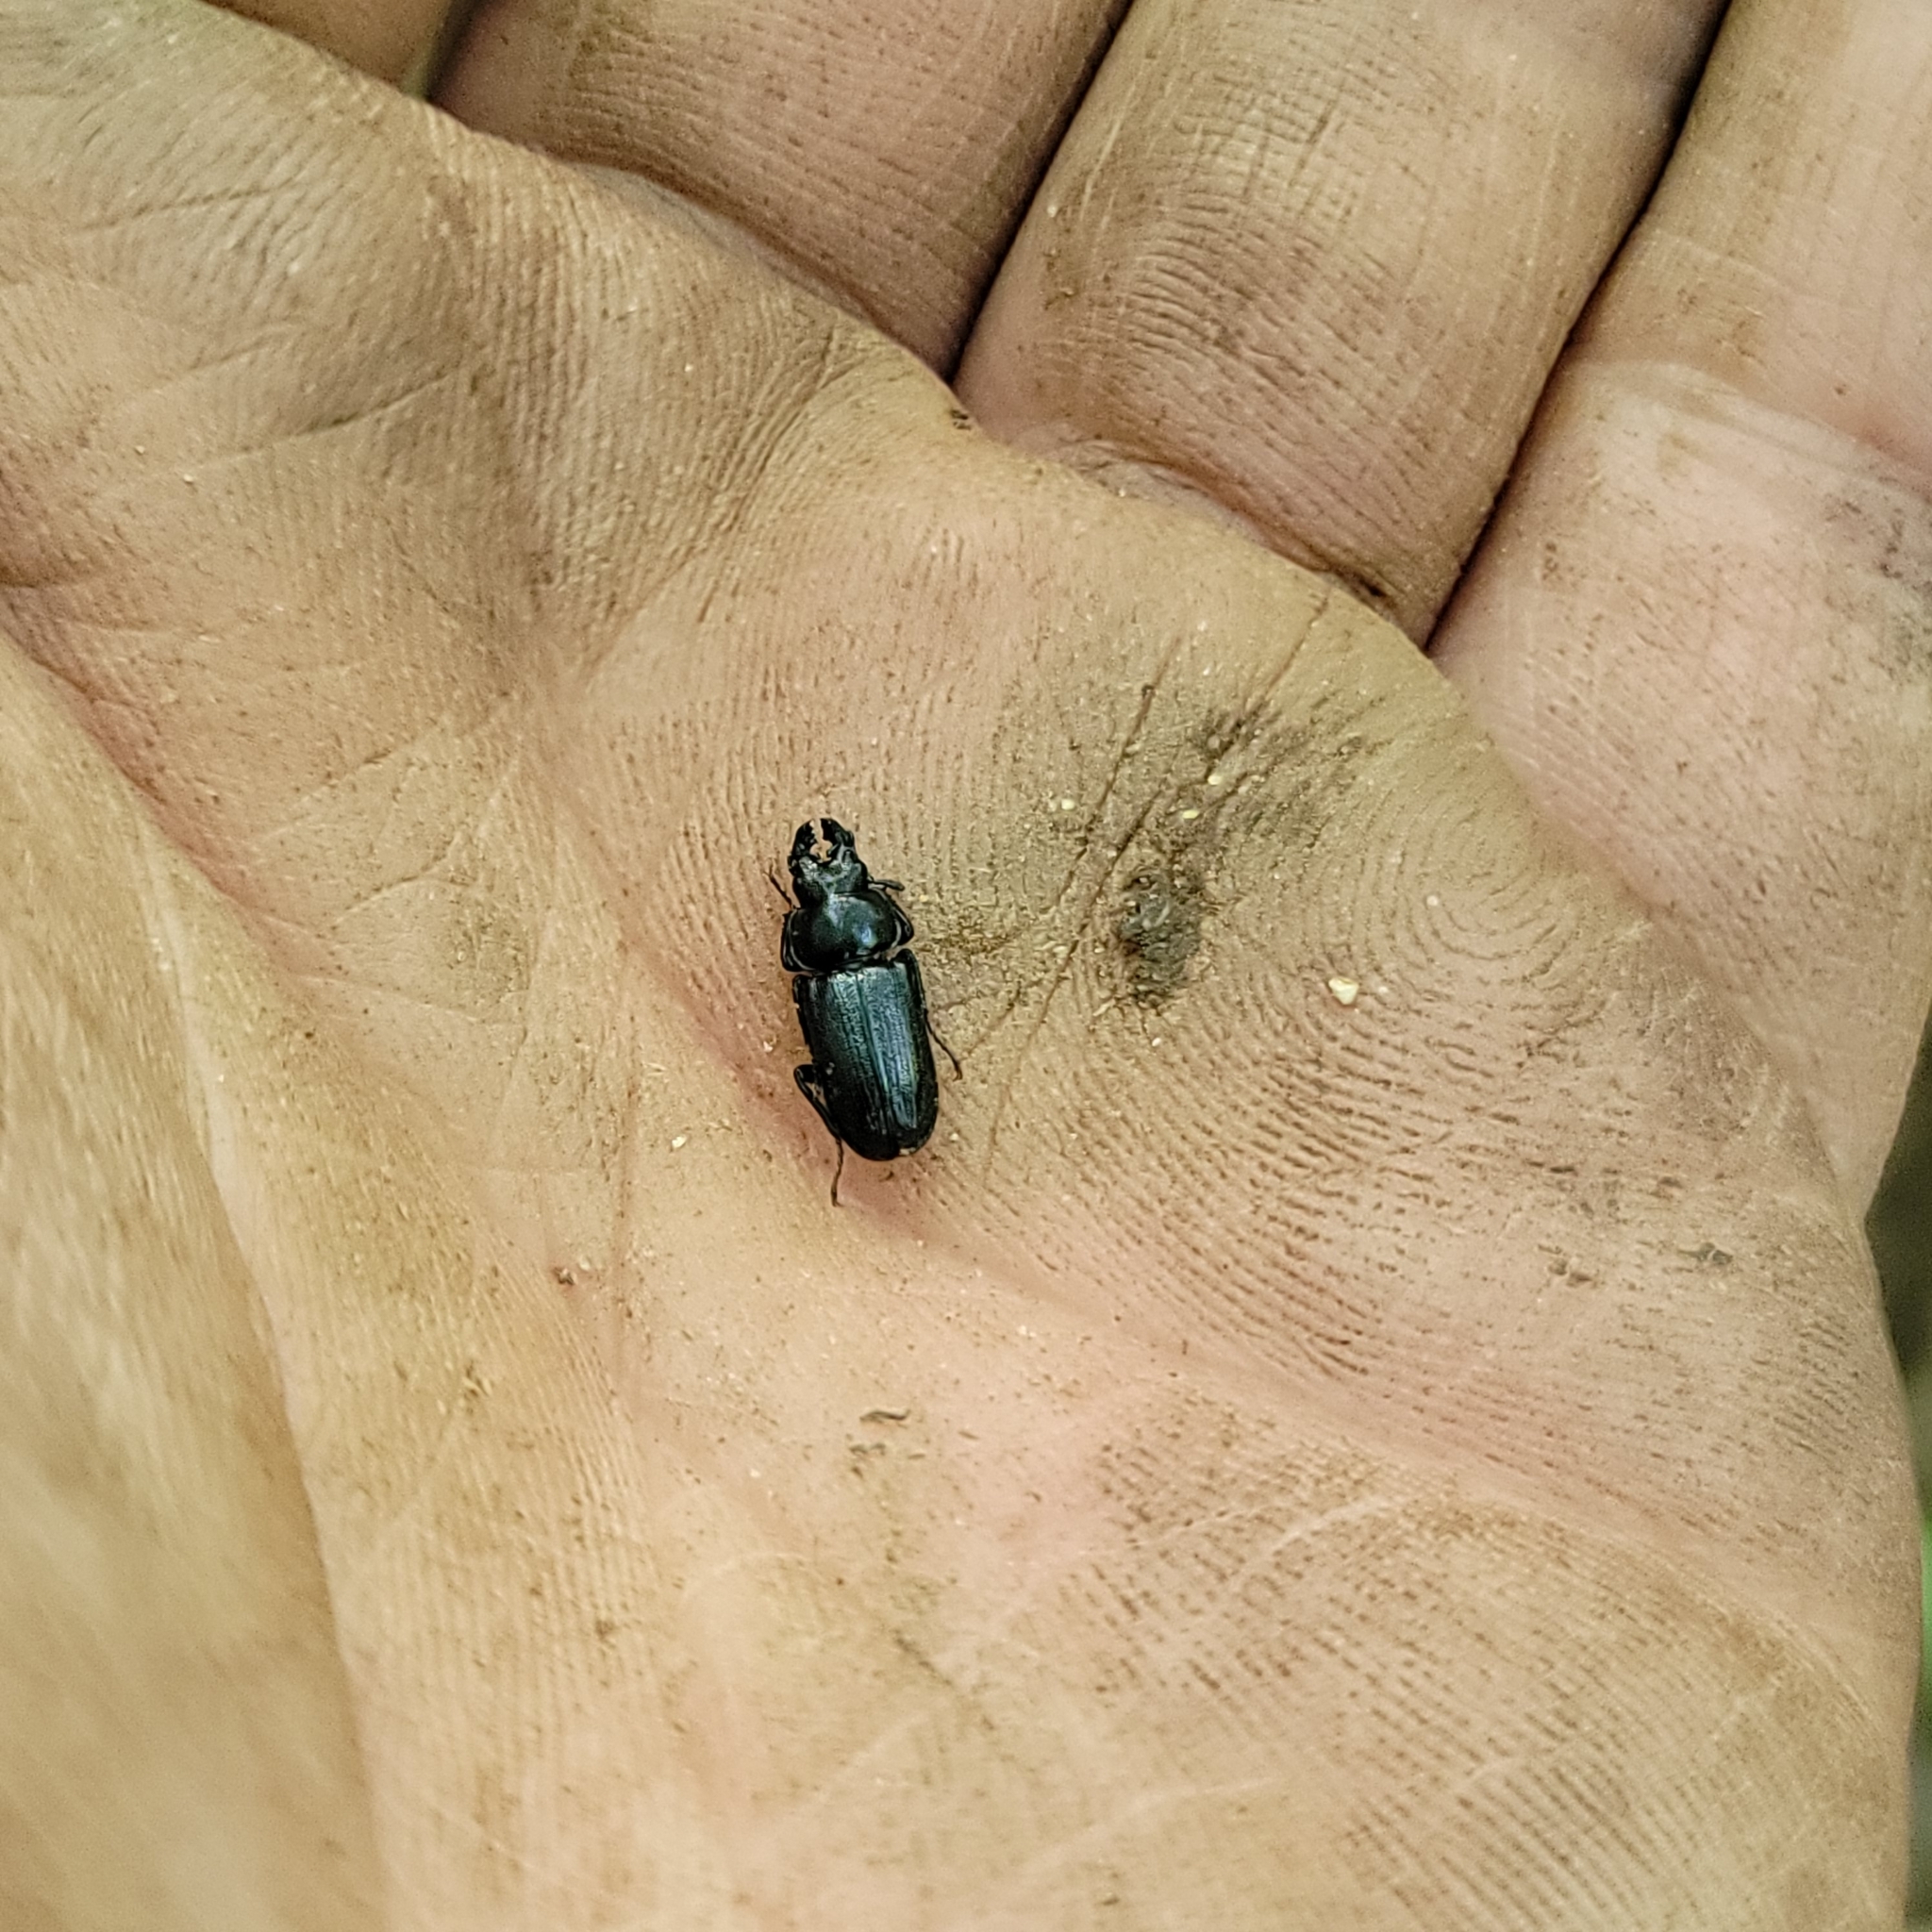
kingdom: Animalia
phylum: Arthropoda
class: Insecta
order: Coleoptera
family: Lucanidae
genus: Platycerus
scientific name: Platycerus quercus
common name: Oak stag beetle
